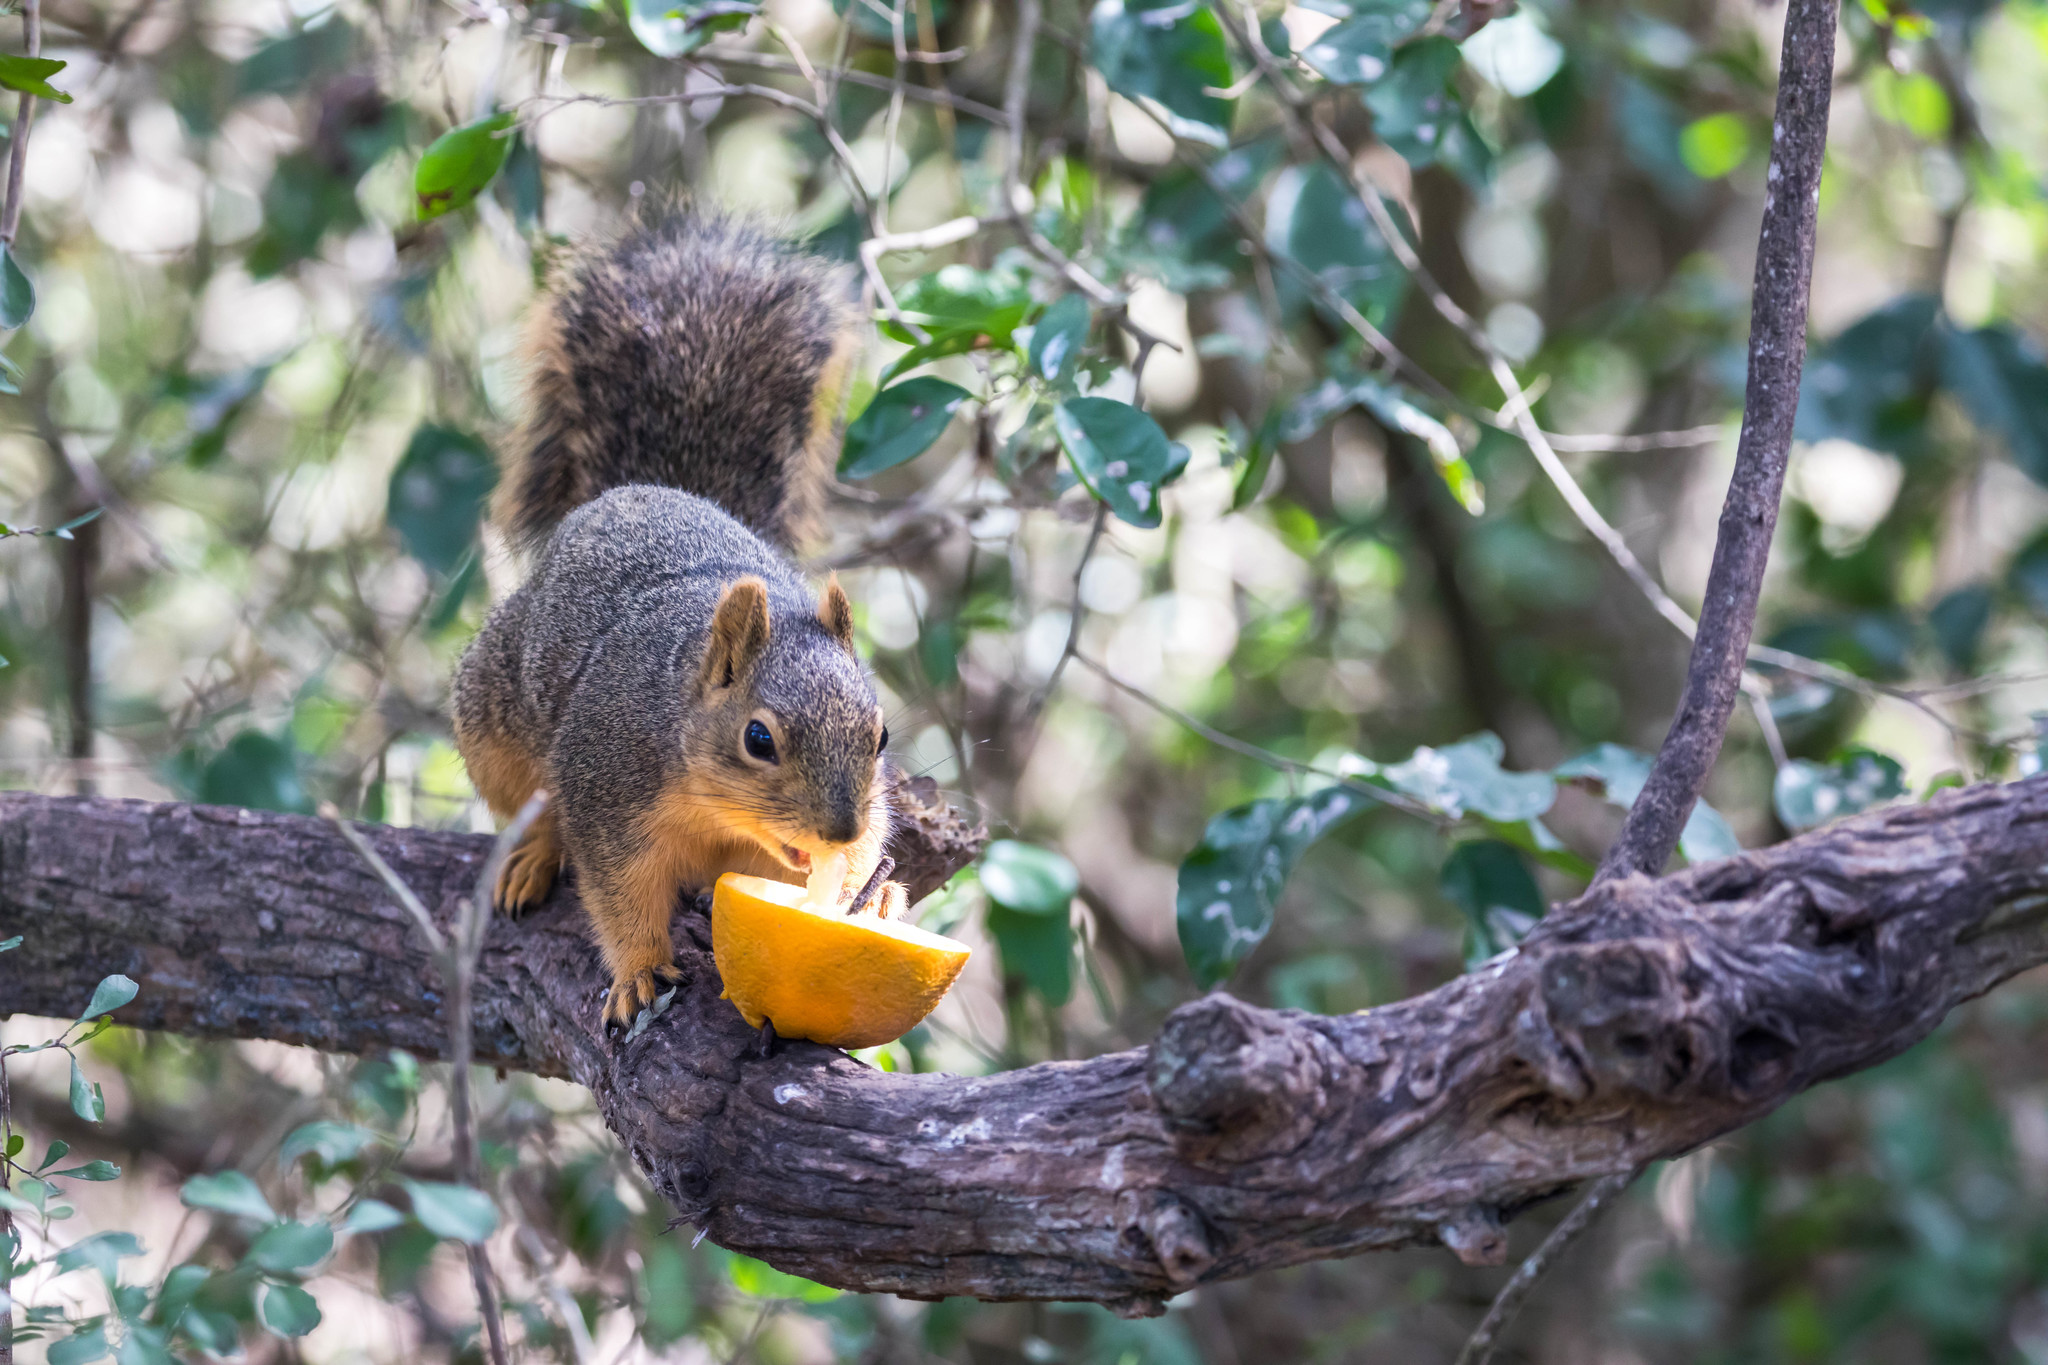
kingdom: Animalia
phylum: Chordata
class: Mammalia
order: Rodentia
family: Sciuridae
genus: Sciurus
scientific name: Sciurus niger
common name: Fox squirrel
